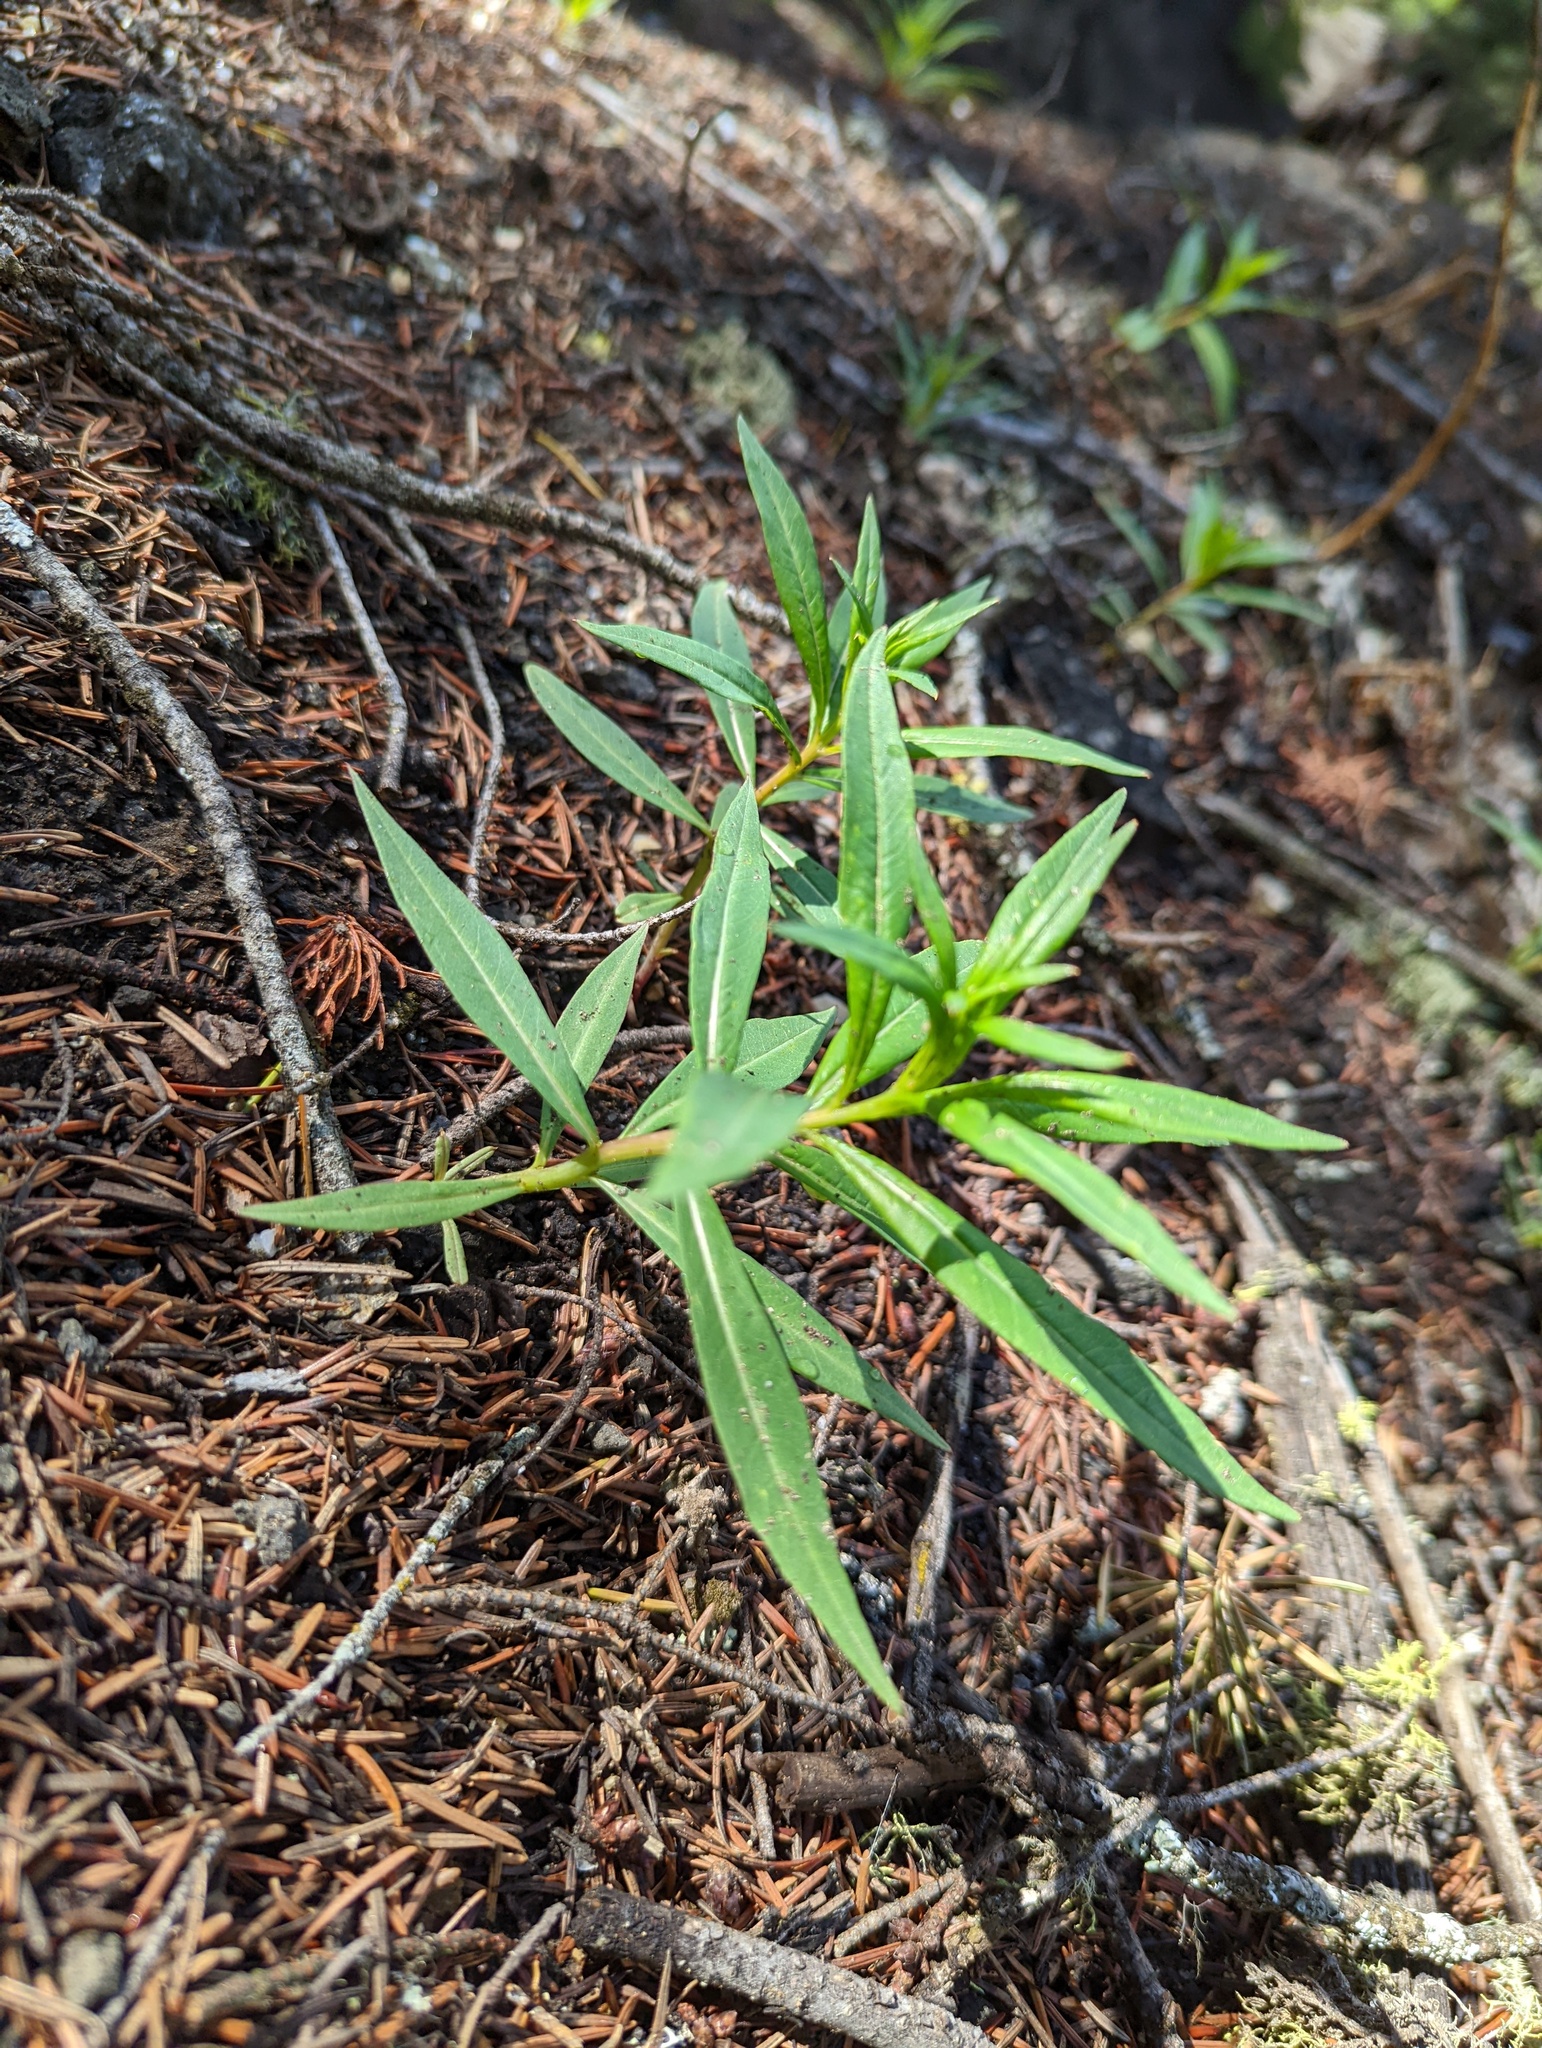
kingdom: Plantae
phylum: Tracheophyta
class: Magnoliopsida
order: Myrtales
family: Onagraceae
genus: Chamaenerion
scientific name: Chamaenerion angustifolium
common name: Fireweed
